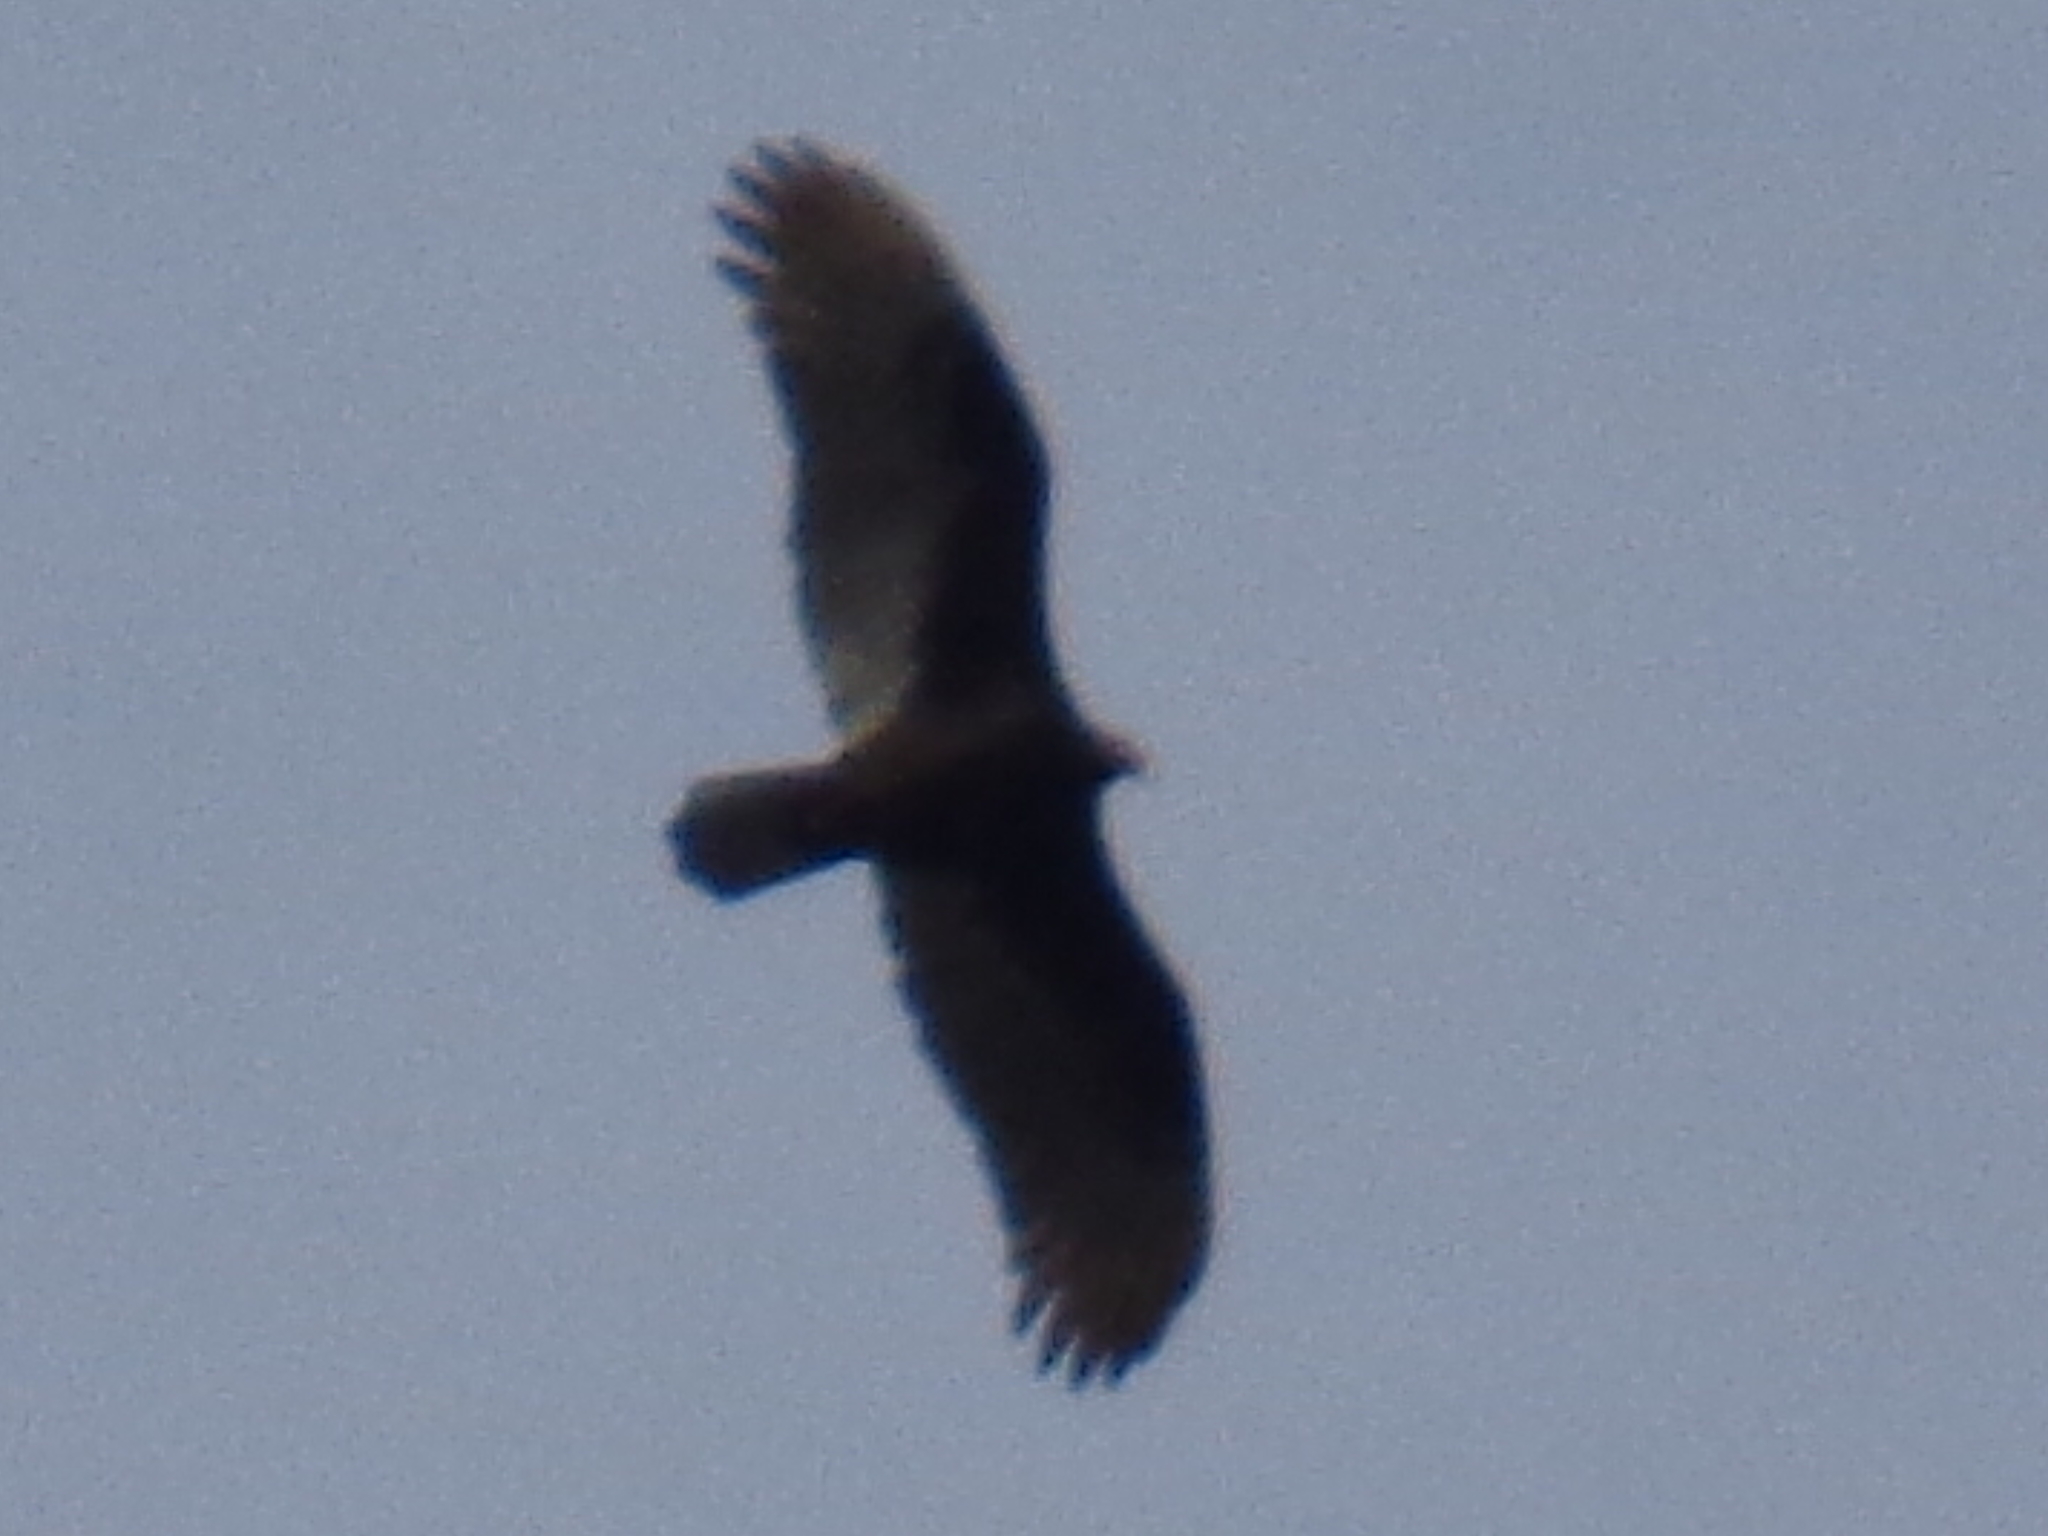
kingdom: Animalia
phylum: Chordata
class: Aves
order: Accipitriformes
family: Cathartidae
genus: Cathartes
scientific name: Cathartes aura
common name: Turkey vulture
